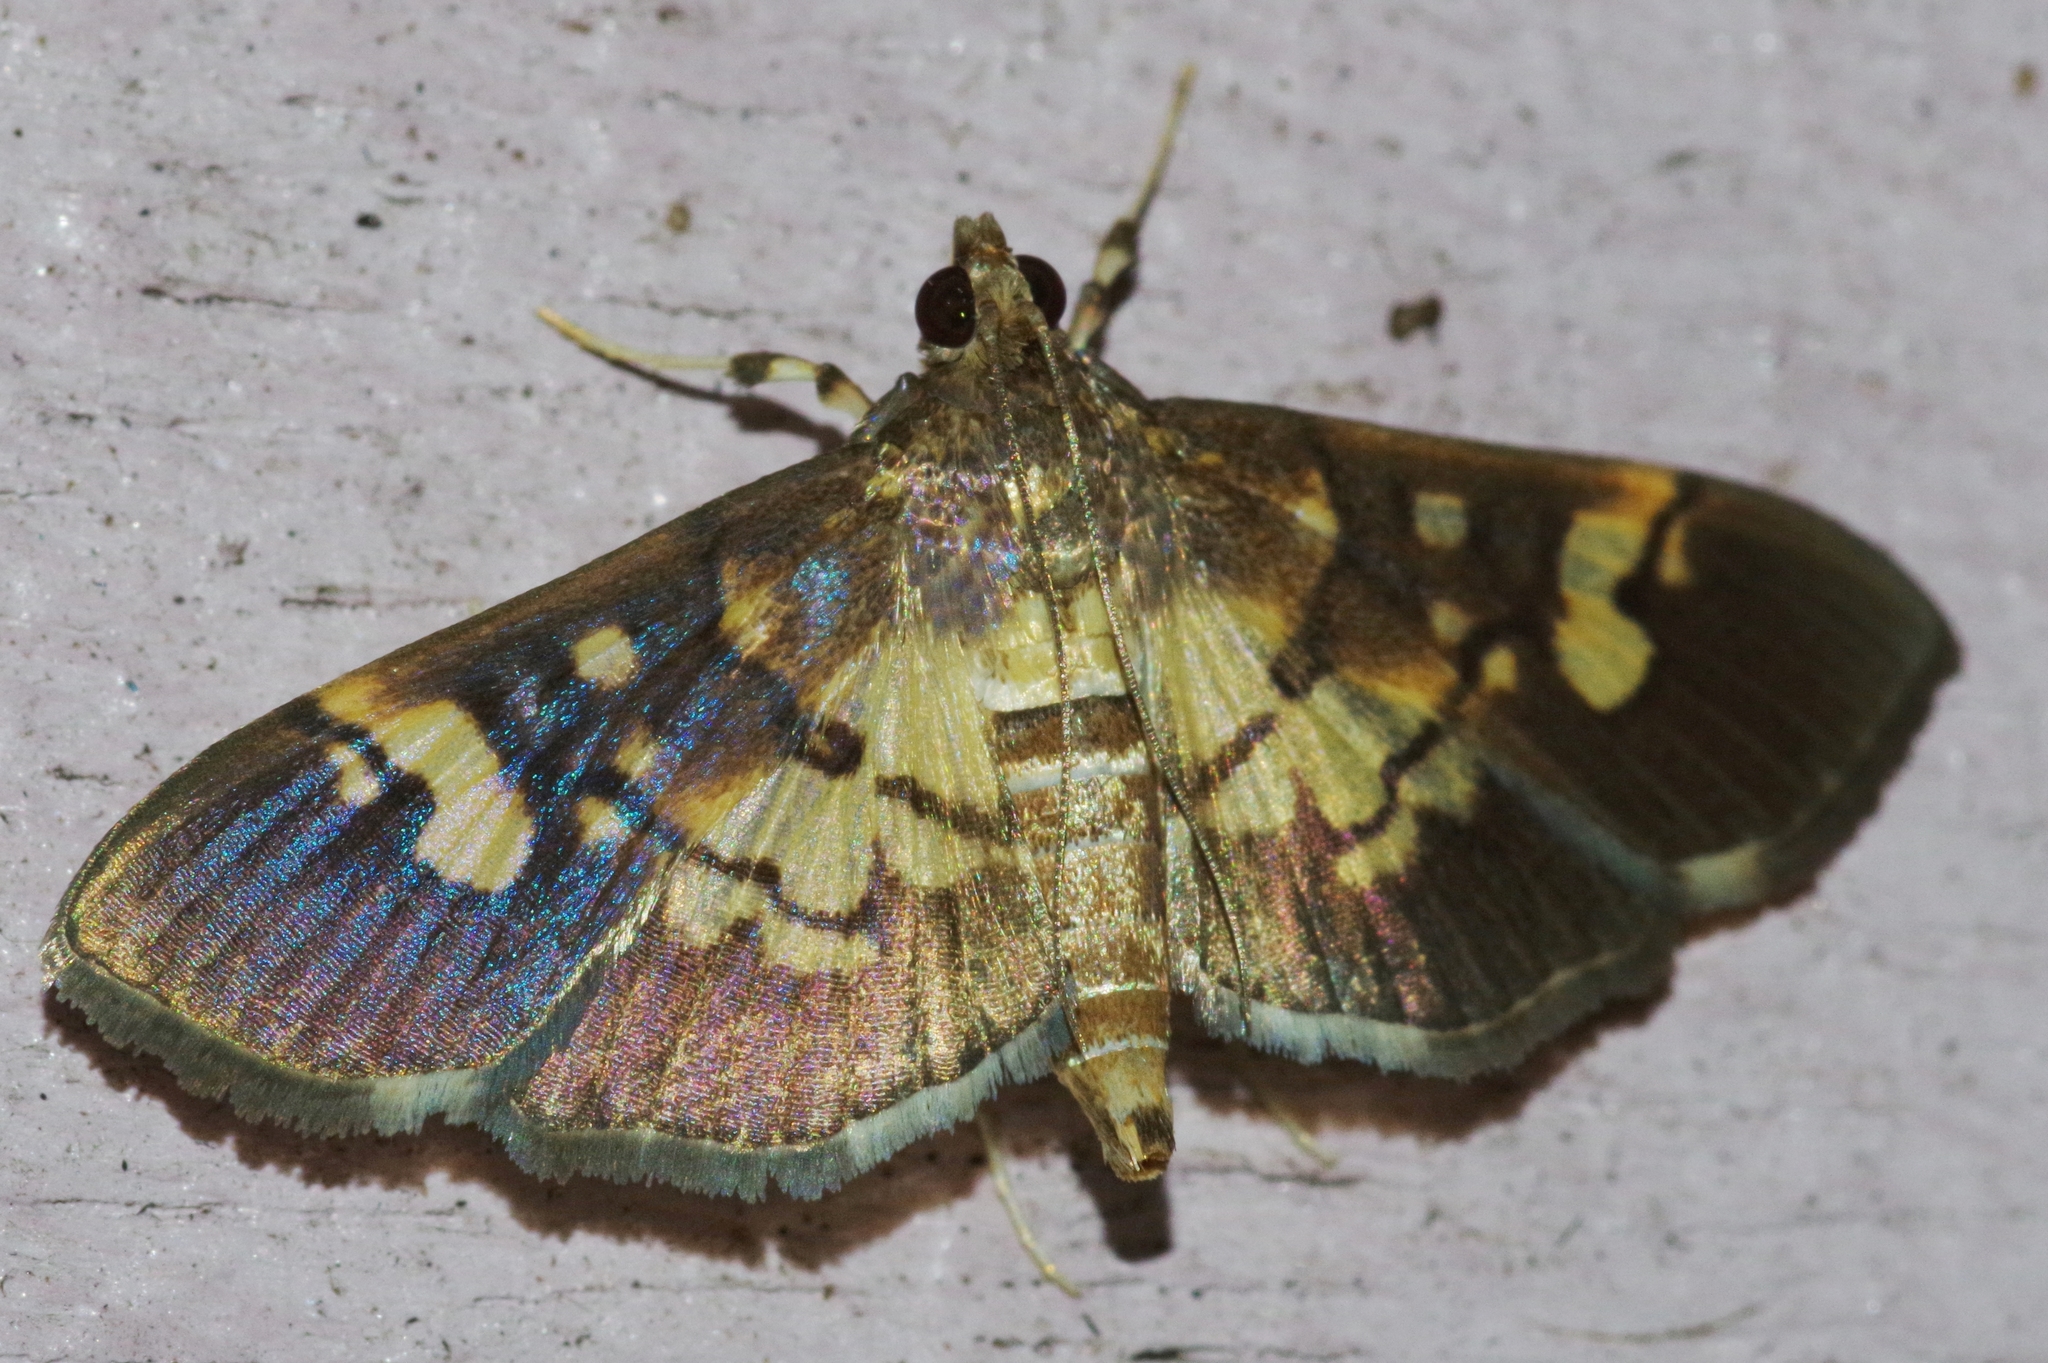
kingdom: Animalia
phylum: Arthropoda
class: Insecta
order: Lepidoptera
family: Crambidae
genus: Uresiphita
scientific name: Uresiphita quinquigera
